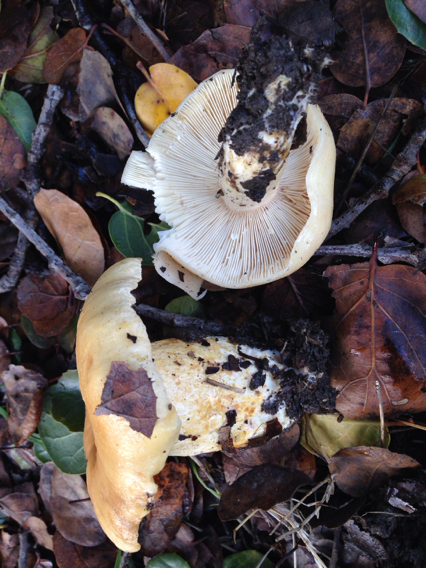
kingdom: Fungi
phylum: Basidiomycota
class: Agaricomycetes
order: Russulales
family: Russulaceae
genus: Lactarius
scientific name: Lactarius alnicola
